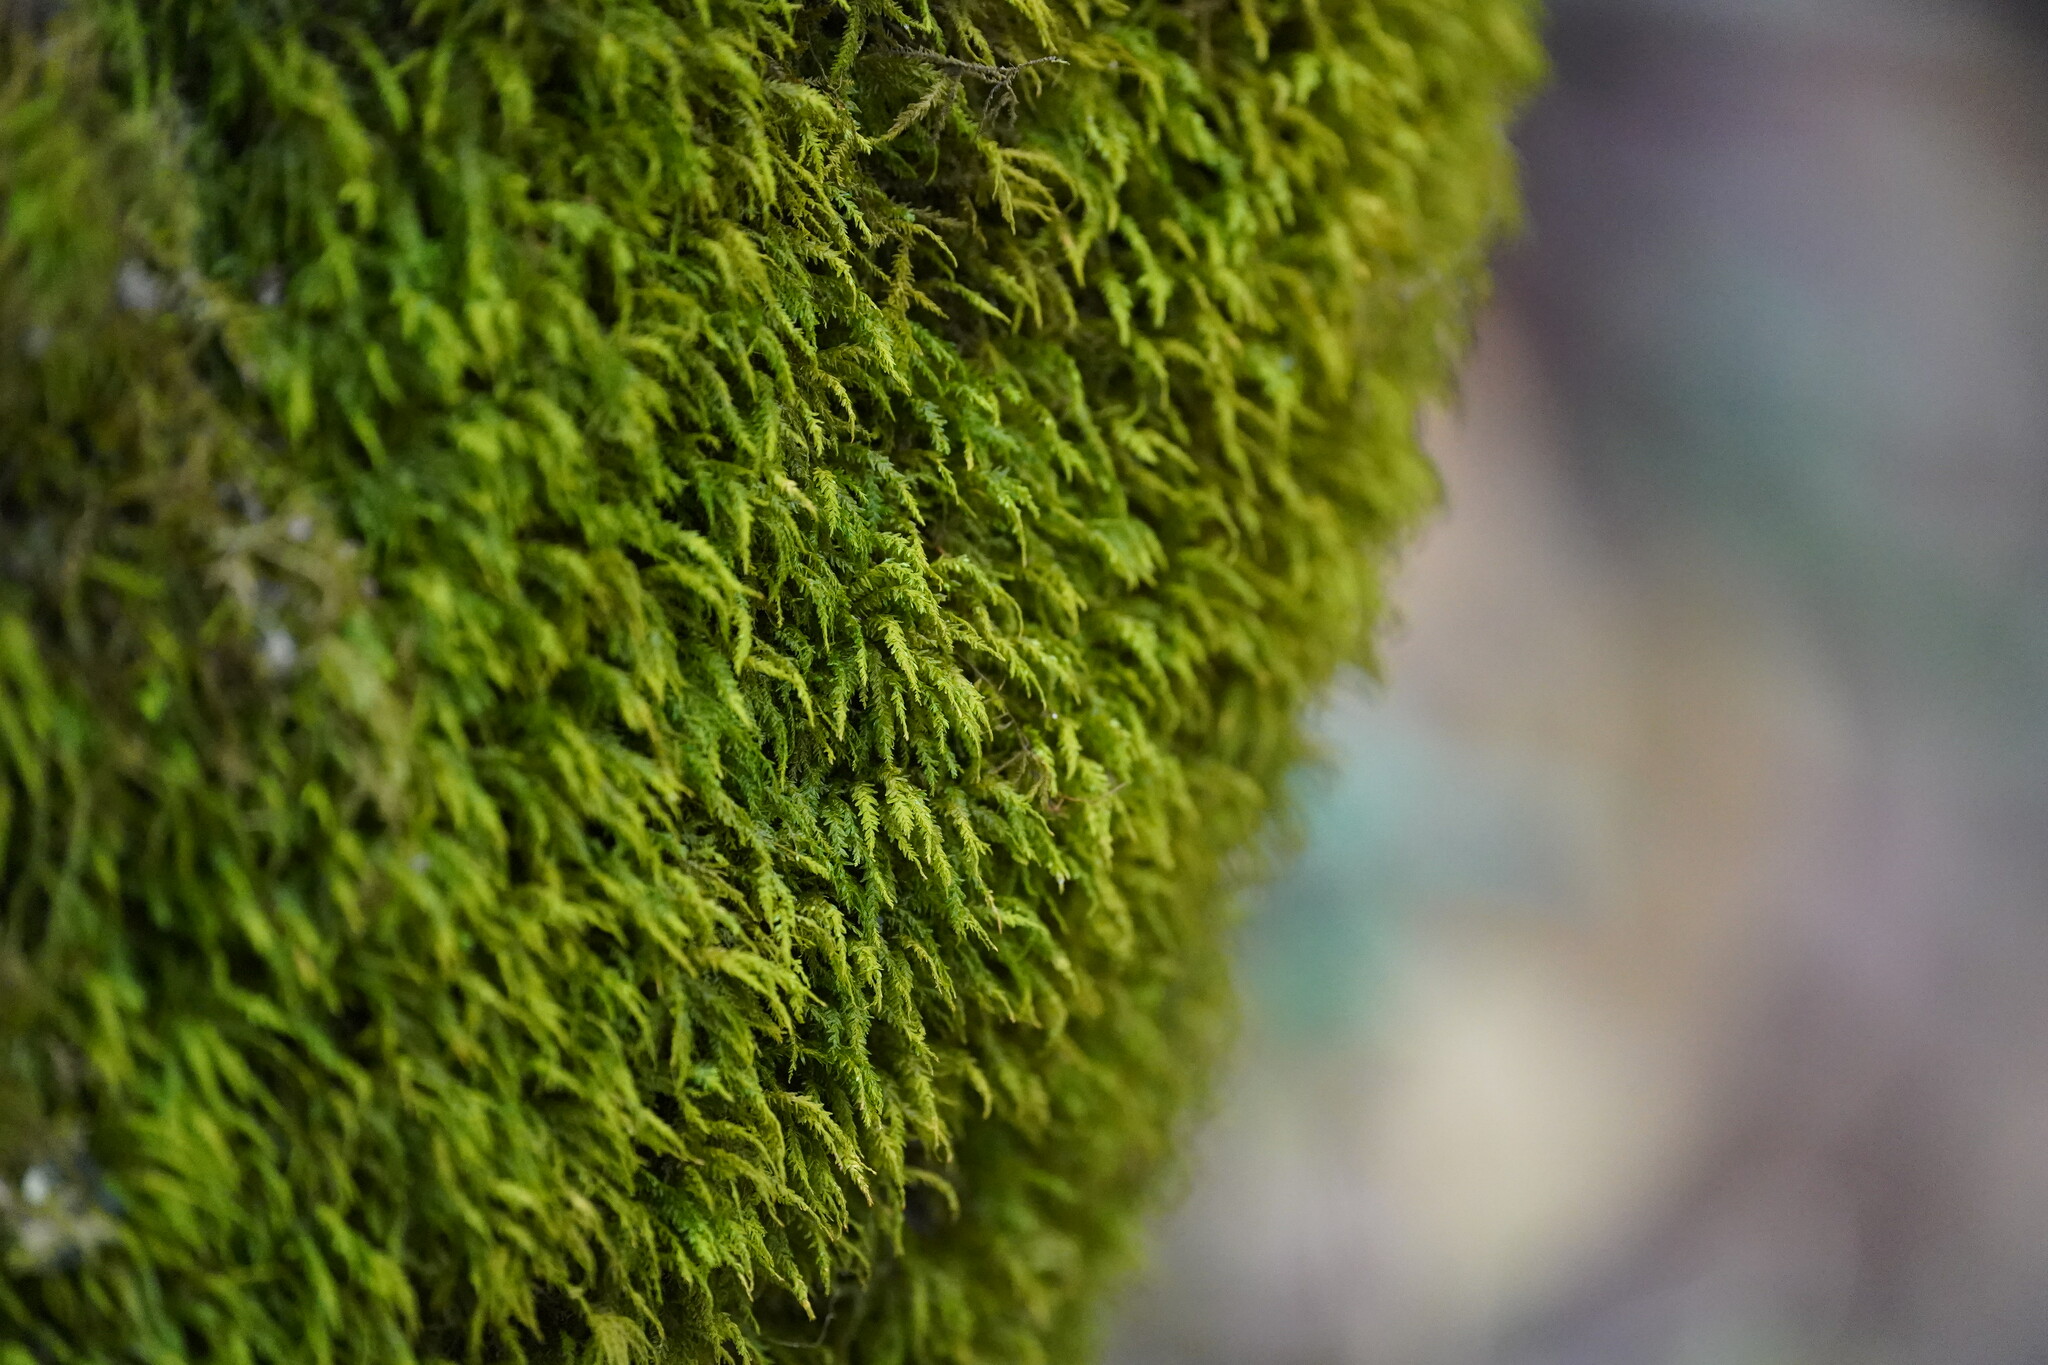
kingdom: Plantae
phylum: Bryophyta
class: Bryopsida
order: Hypnales
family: Neckeraceae
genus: Pseudanomodon
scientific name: Pseudanomodon attenuatus
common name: Tree-skirt moss
